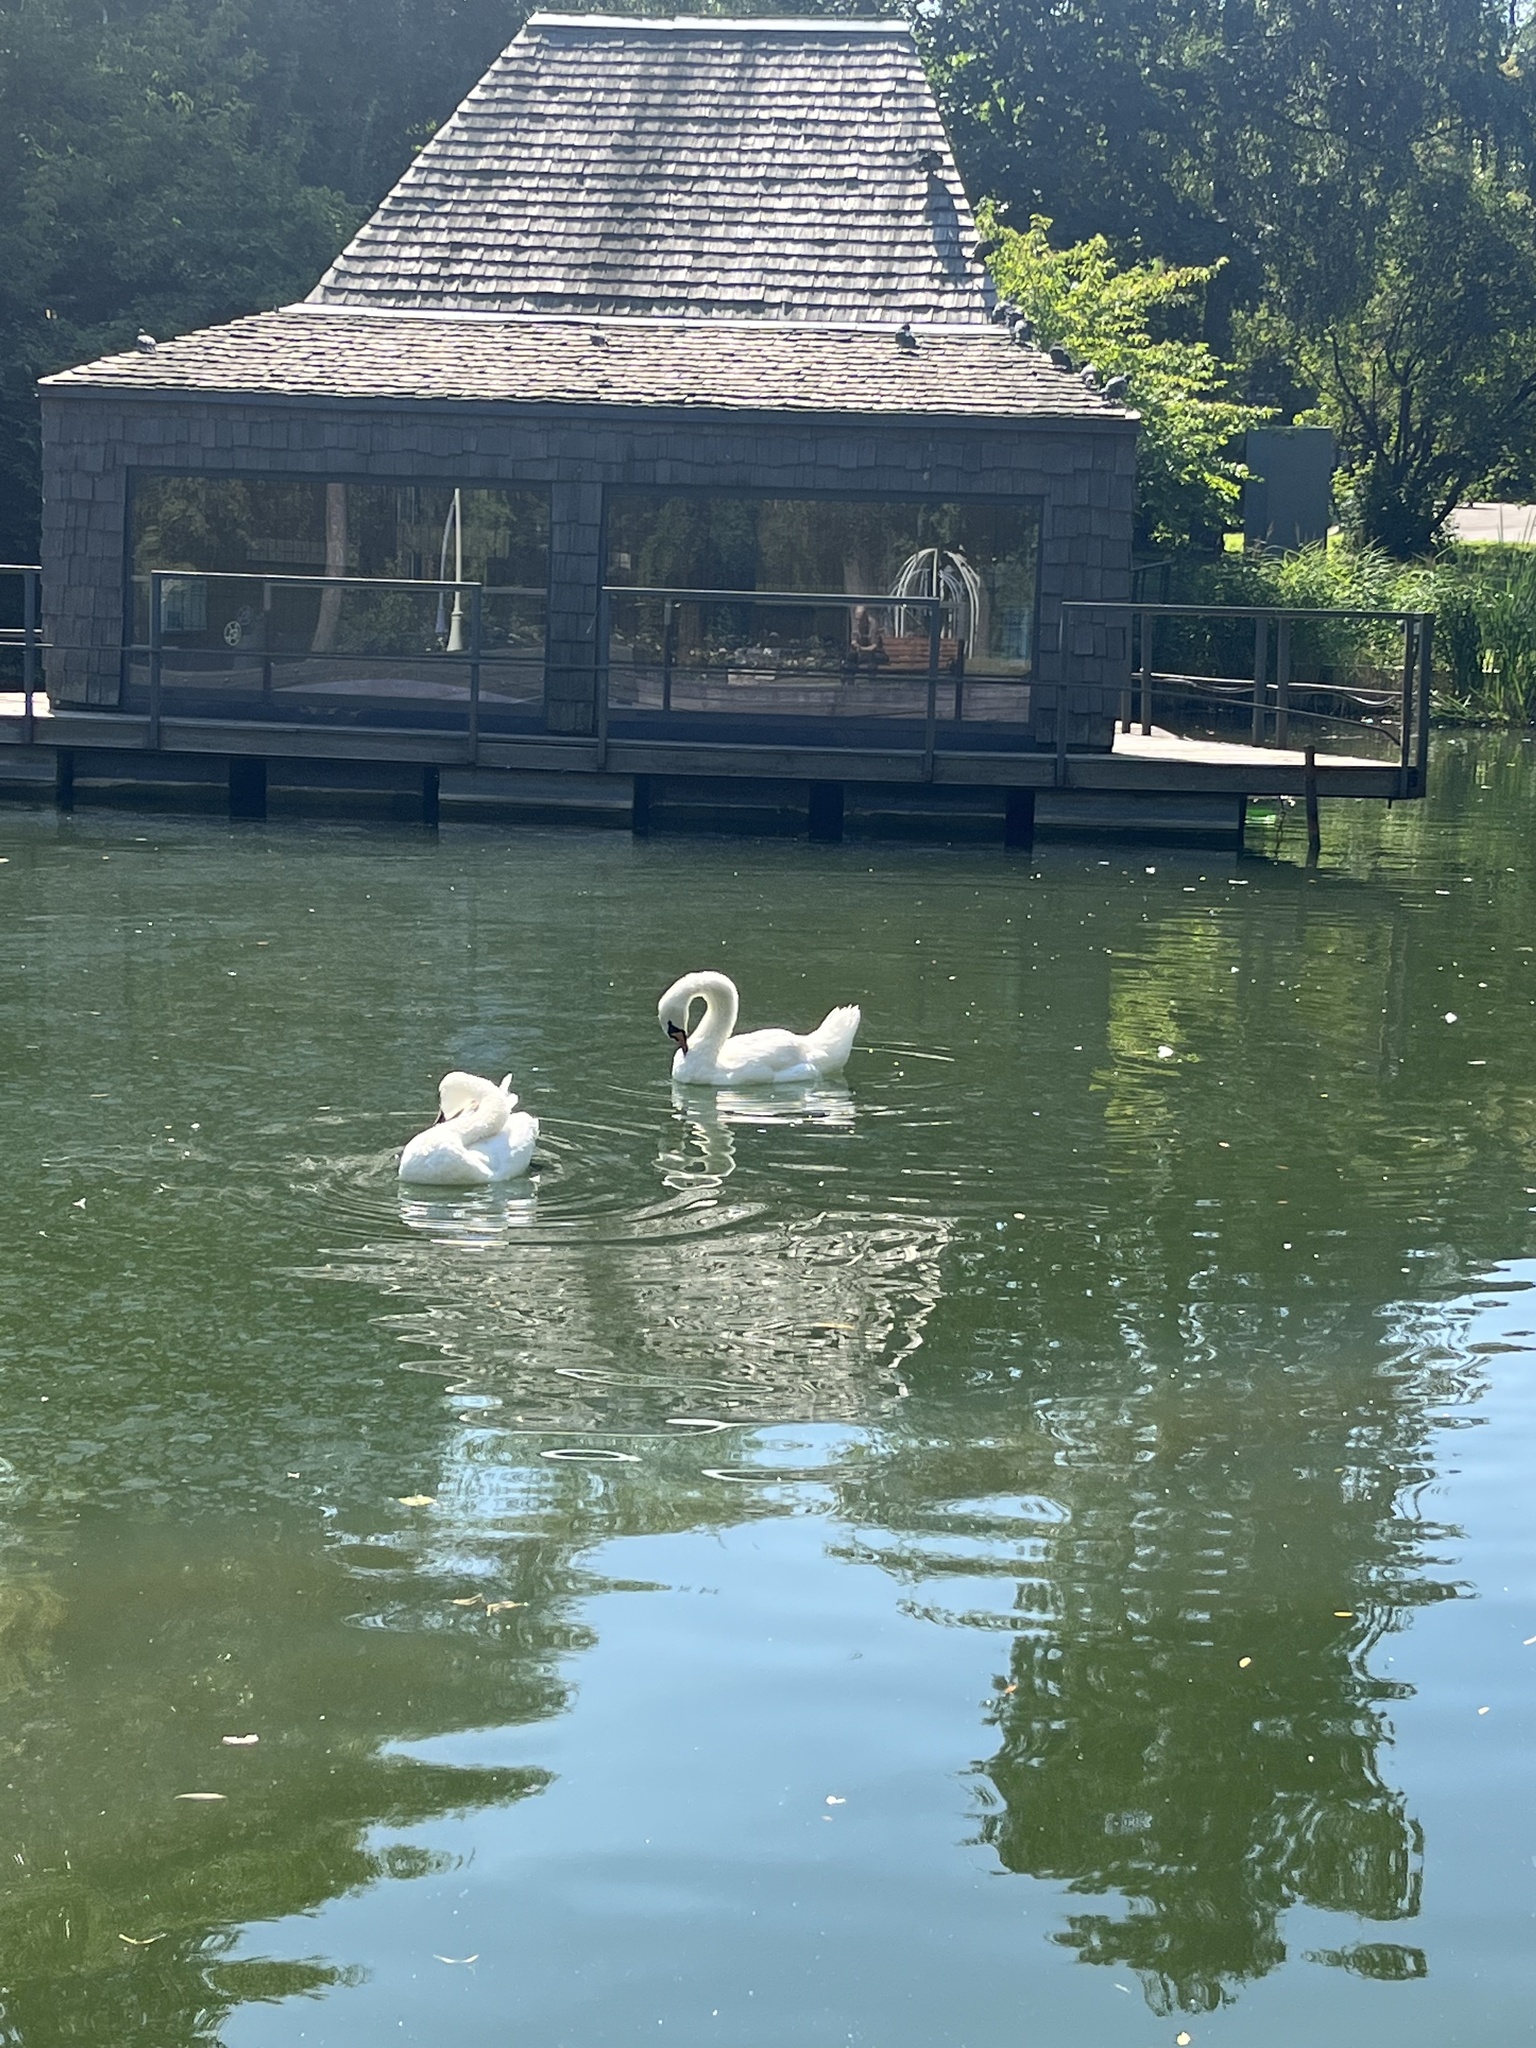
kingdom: Animalia
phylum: Chordata
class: Aves
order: Anseriformes
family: Anatidae
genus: Cygnus
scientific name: Cygnus olor
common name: Mute swan
